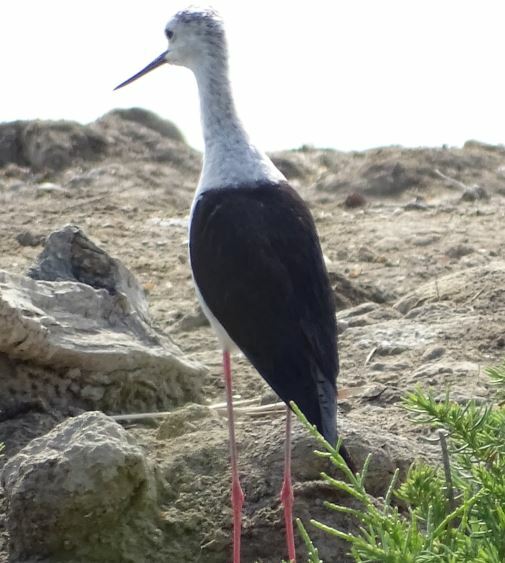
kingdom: Animalia
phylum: Chordata
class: Aves
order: Charadriiformes
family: Recurvirostridae
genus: Himantopus
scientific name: Himantopus himantopus
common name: Black-winged stilt
